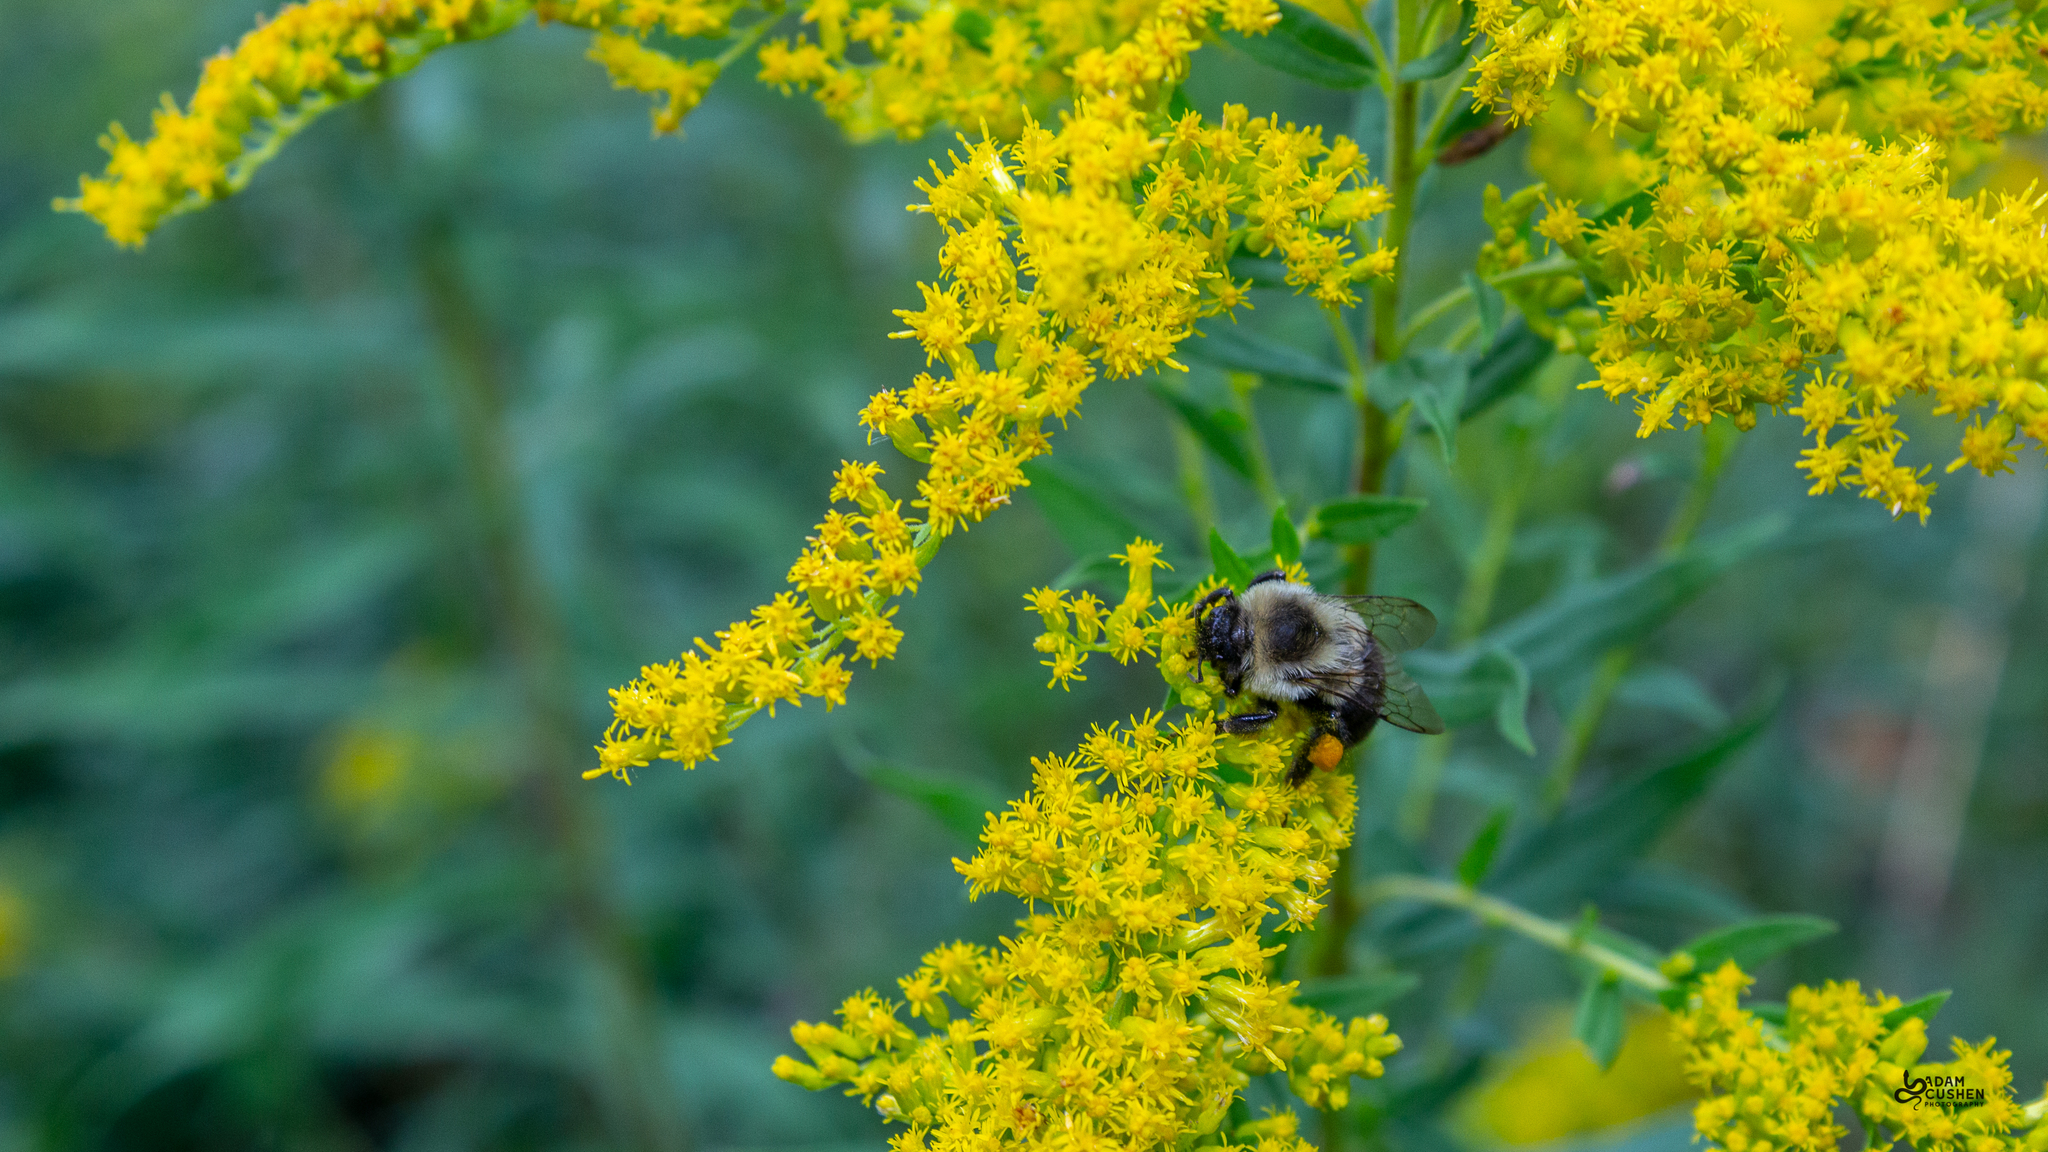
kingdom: Animalia
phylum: Arthropoda
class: Insecta
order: Hymenoptera
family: Apidae
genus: Bombus
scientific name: Bombus impatiens
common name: Common eastern bumble bee
